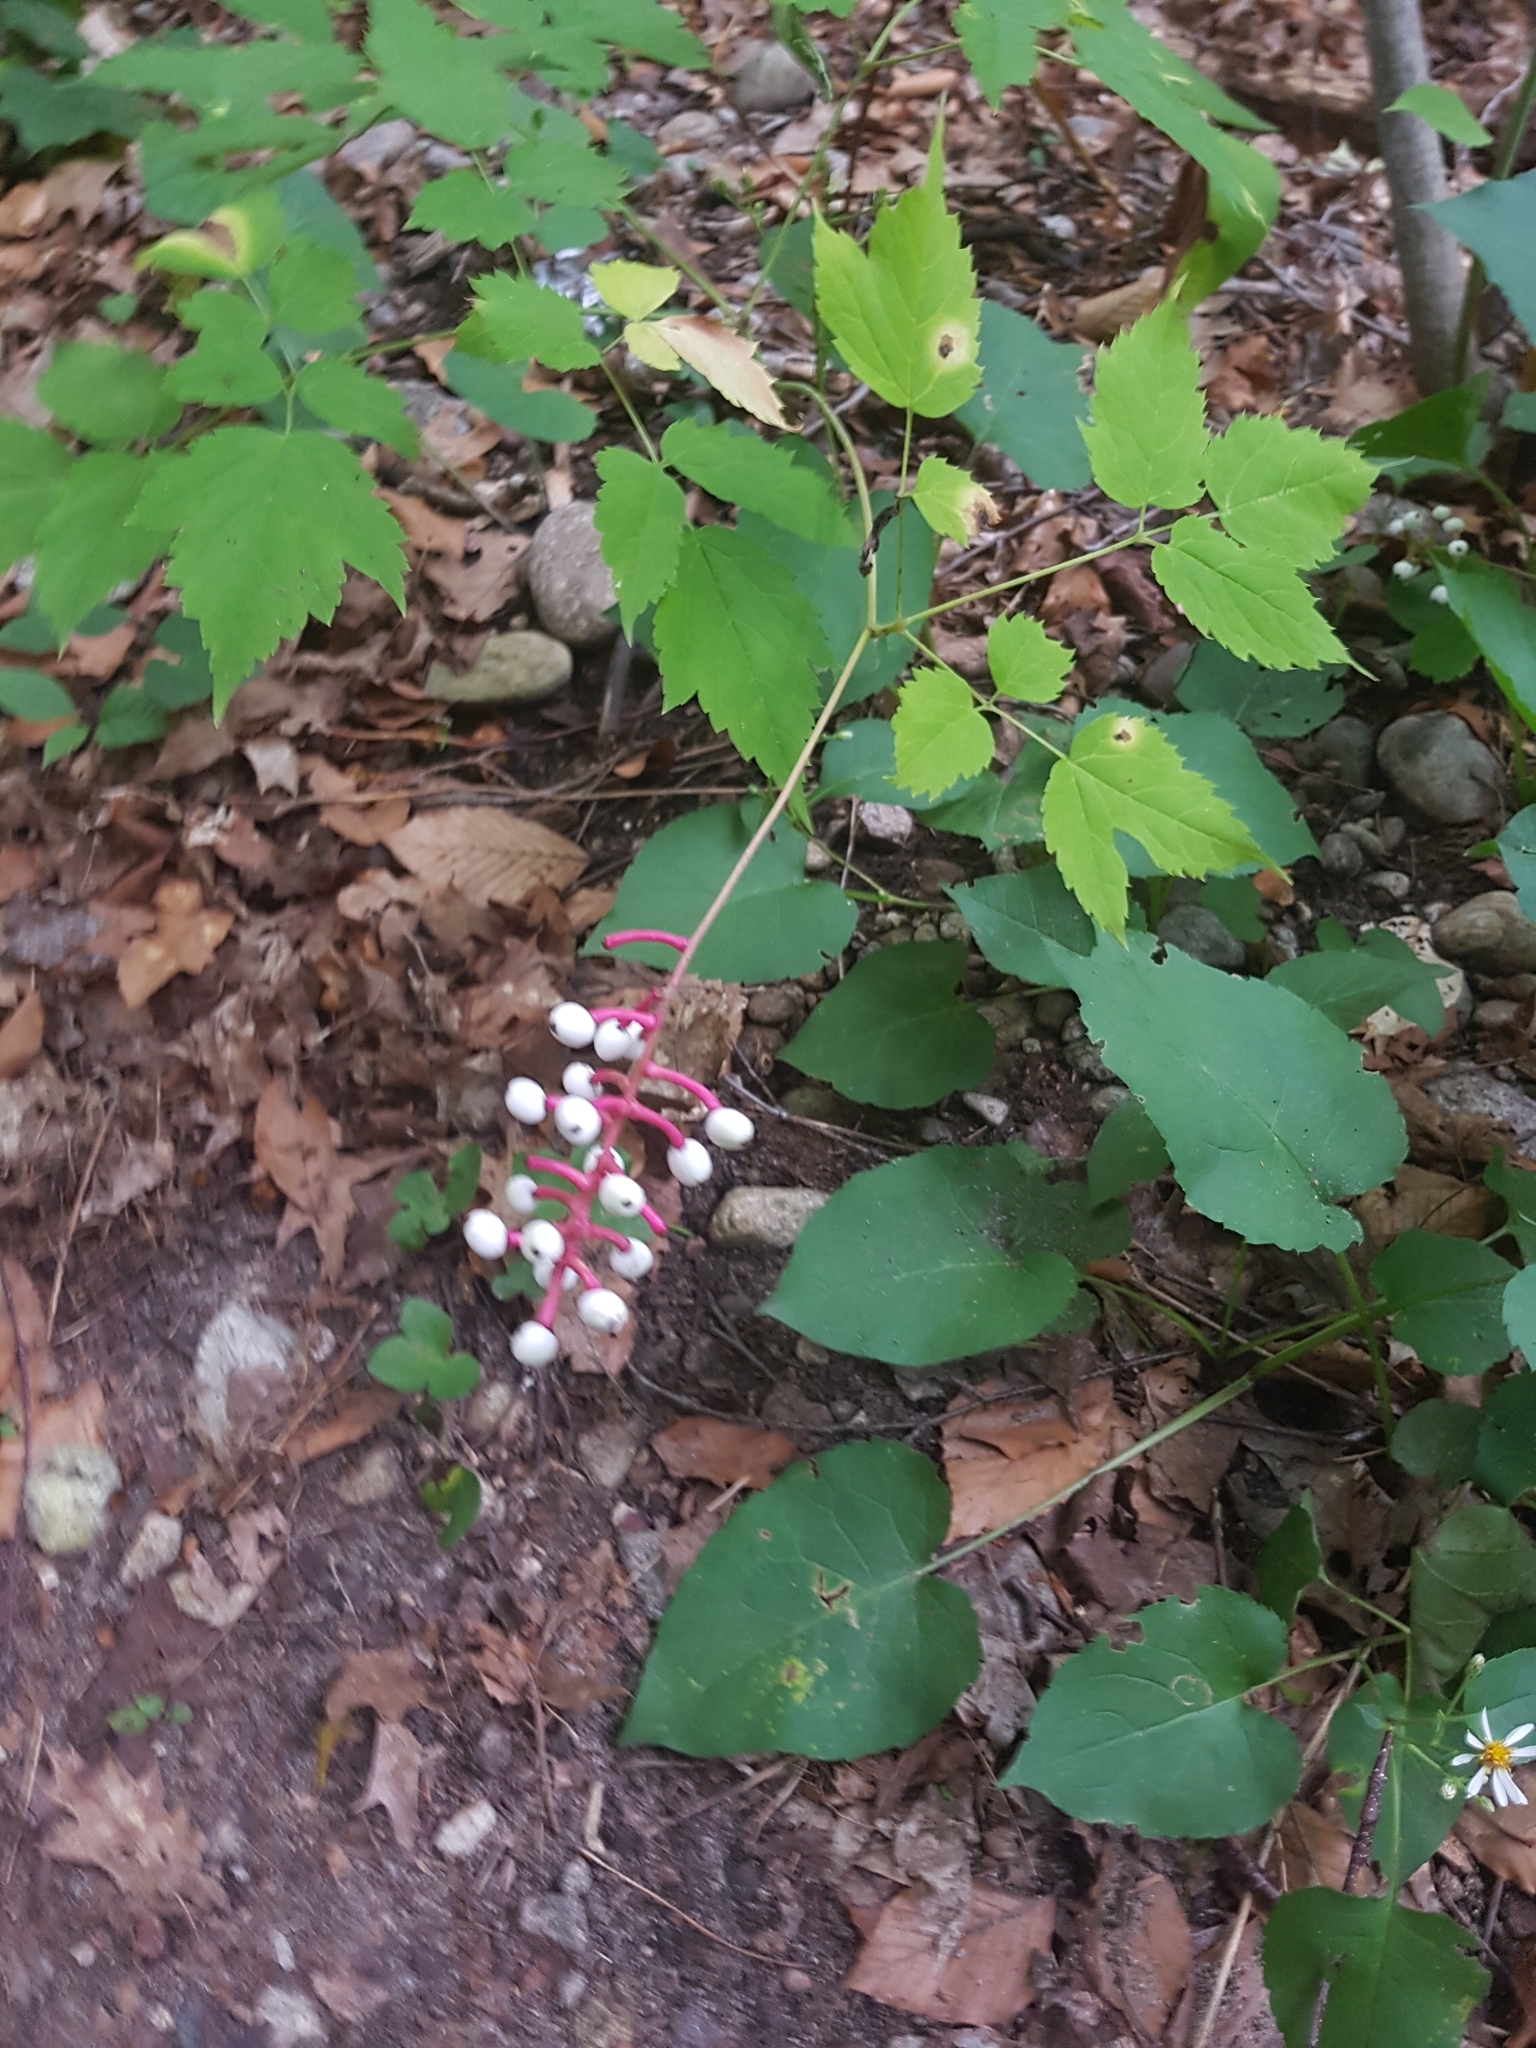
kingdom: Plantae
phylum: Tracheophyta
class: Magnoliopsida
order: Ranunculales
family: Ranunculaceae
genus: Actaea
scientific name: Actaea pachypoda
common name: Doll's-eyes
